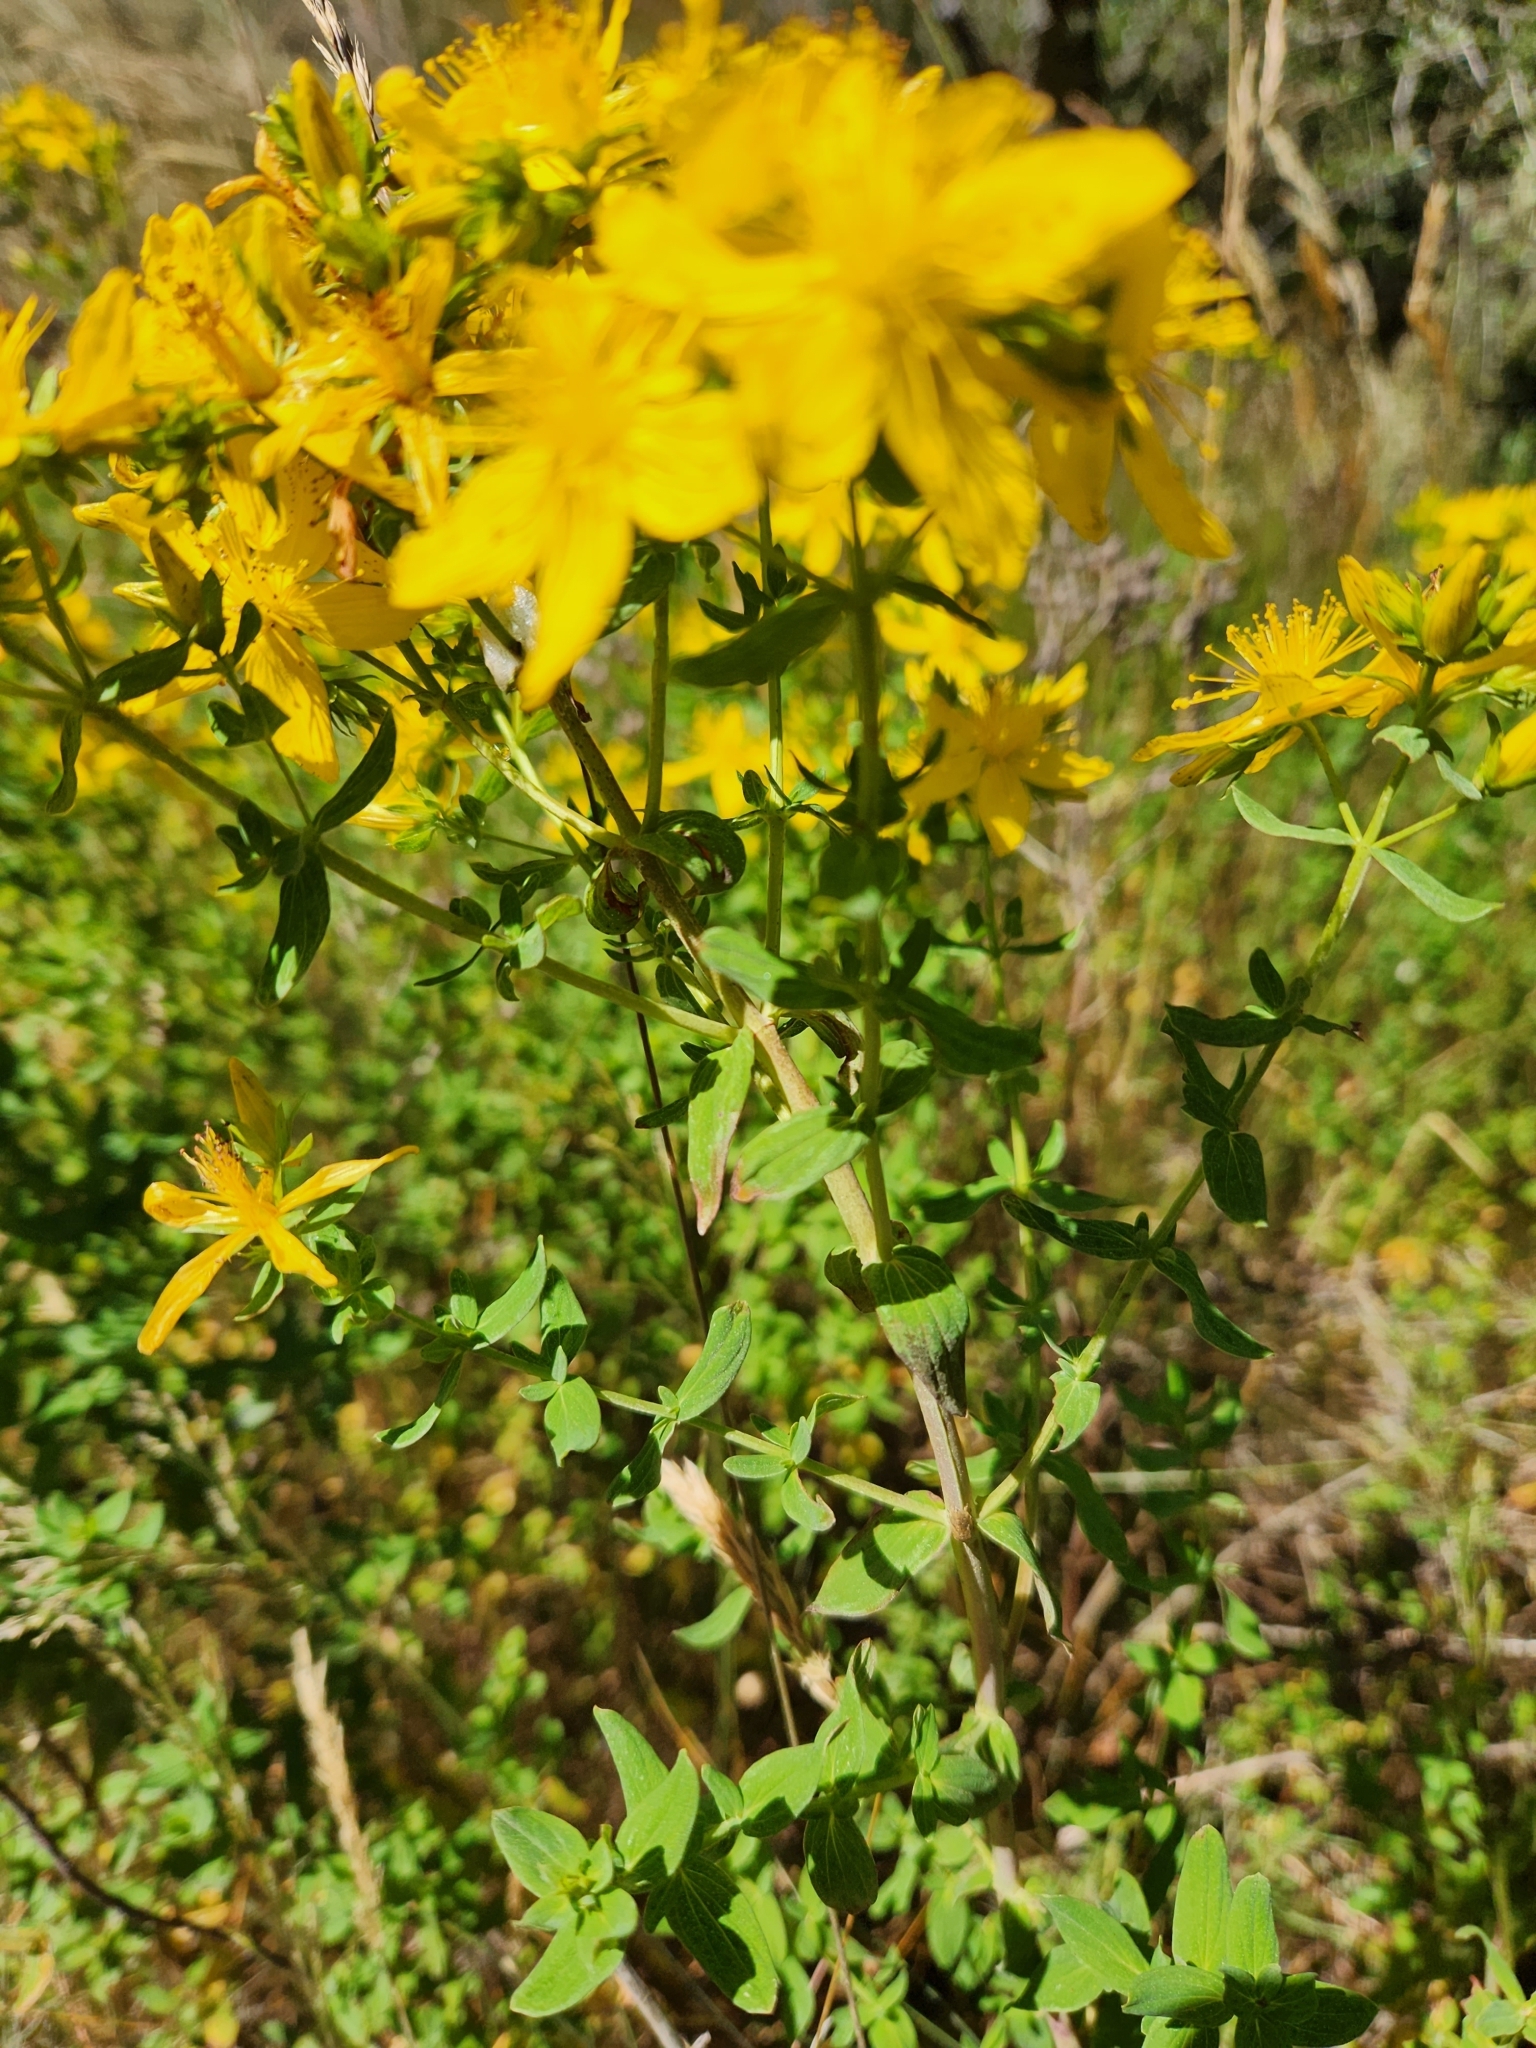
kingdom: Plantae
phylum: Tracheophyta
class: Magnoliopsida
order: Malpighiales
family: Hypericaceae
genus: Hypericum
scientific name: Hypericum perforatum
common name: Common st. johnswort
